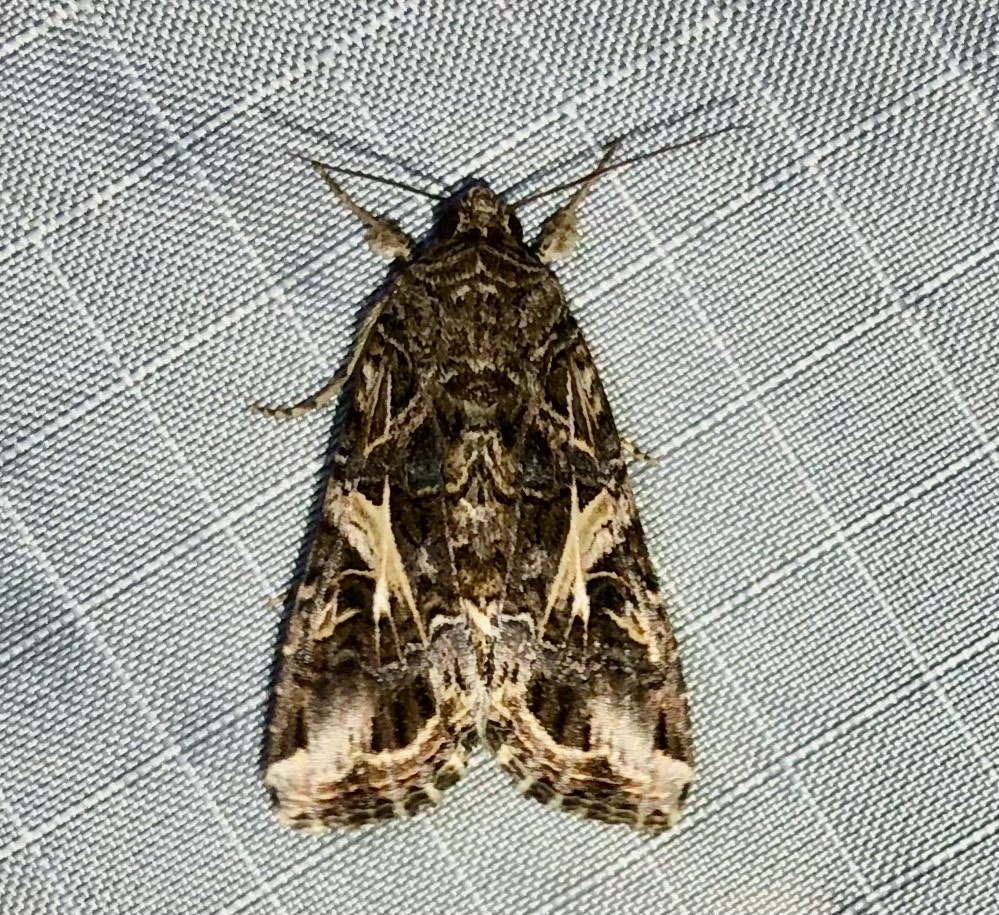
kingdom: Animalia
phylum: Arthropoda
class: Insecta
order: Lepidoptera
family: Noctuidae
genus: Spodoptera
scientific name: Spodoptera ornithogalli
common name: Yellow-striped armyworm
